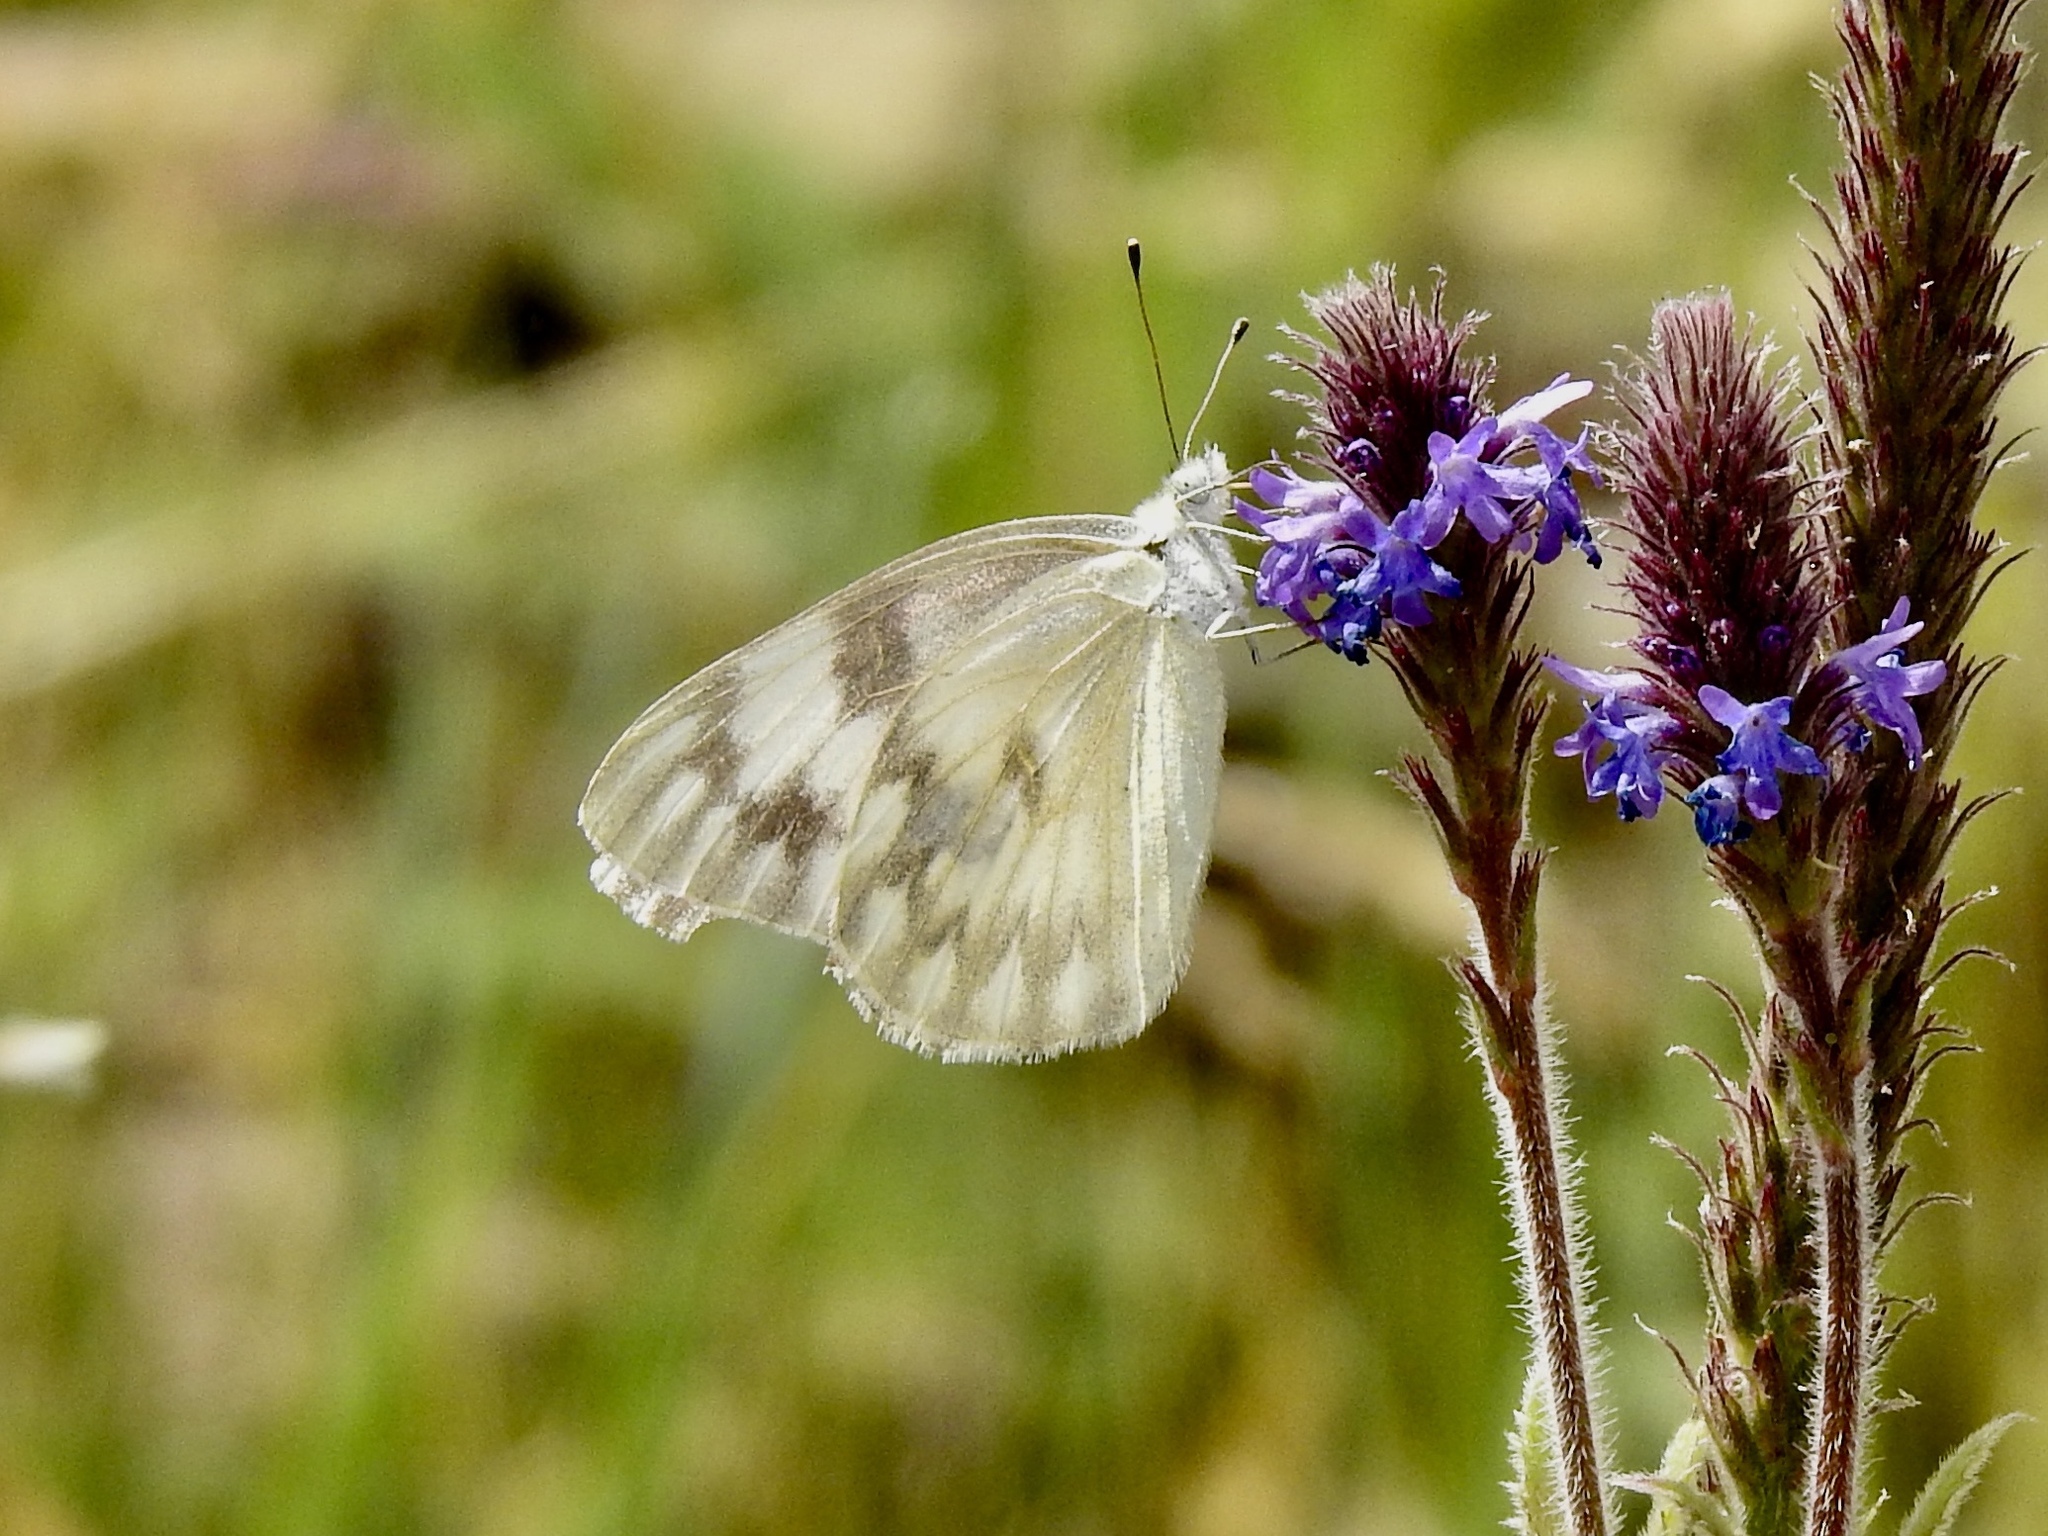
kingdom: Animalia
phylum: Arthropoda
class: Insecta
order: Lepidoptera
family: Pieridae
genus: Pontia
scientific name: Pontia protodice
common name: Checkered white
